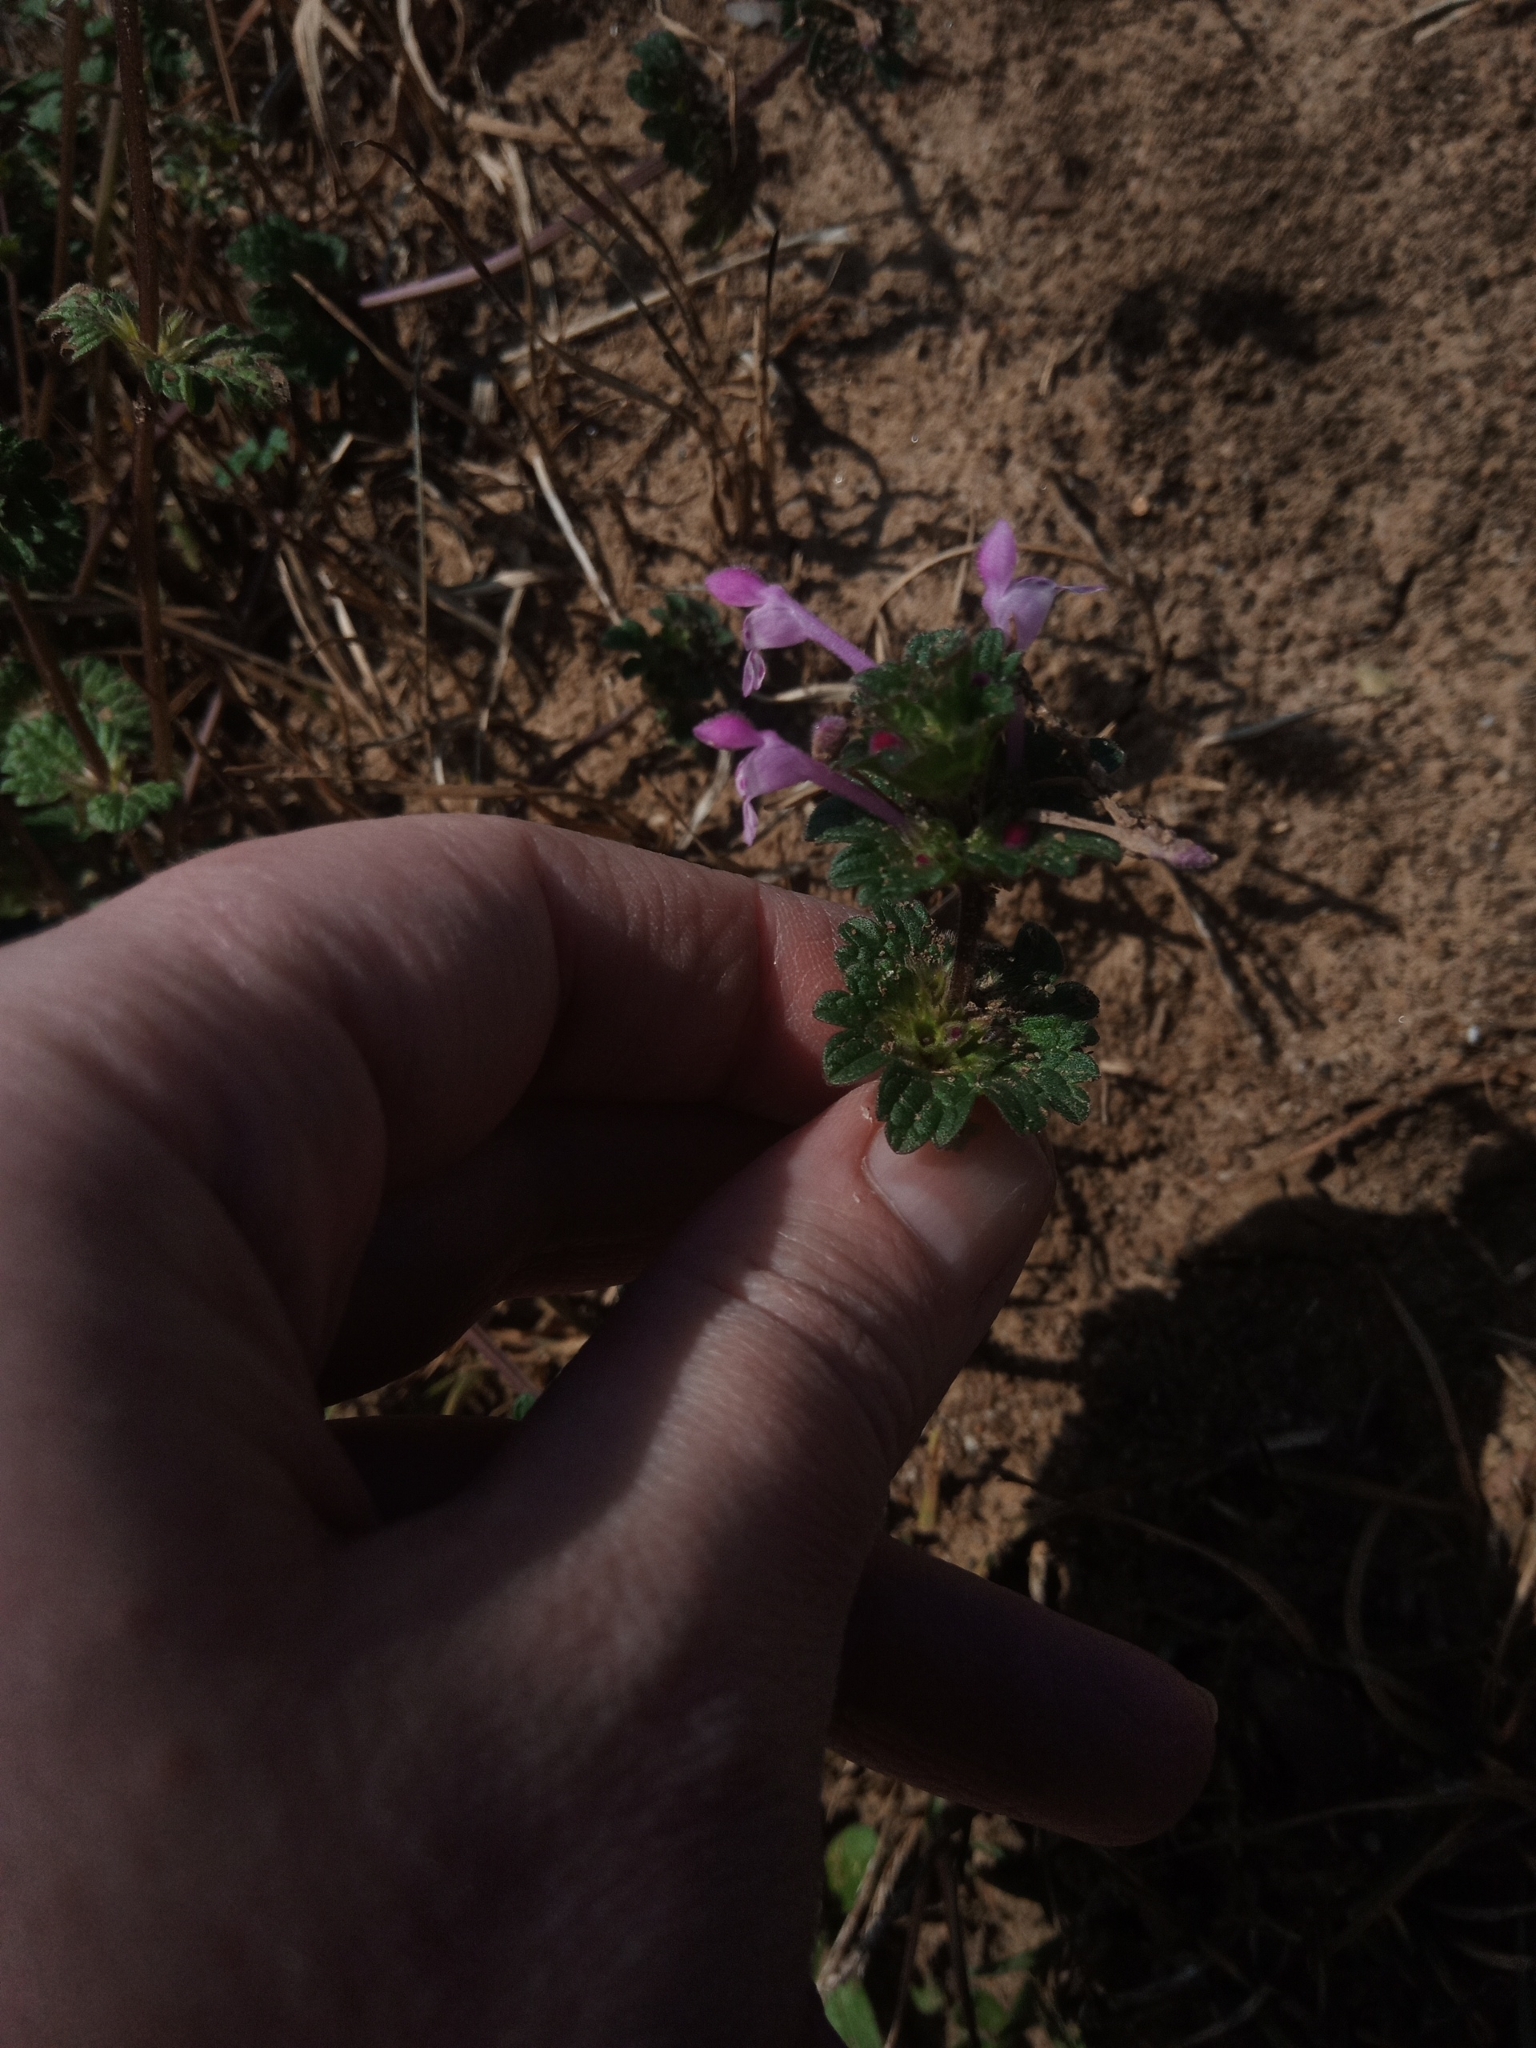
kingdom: Plantae
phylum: Tracheophyta
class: Magnoliopsida
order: Lamiales
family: Lamiaceae
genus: Lamium
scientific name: Lamium amplexicaule
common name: Henbit dead-nettle
